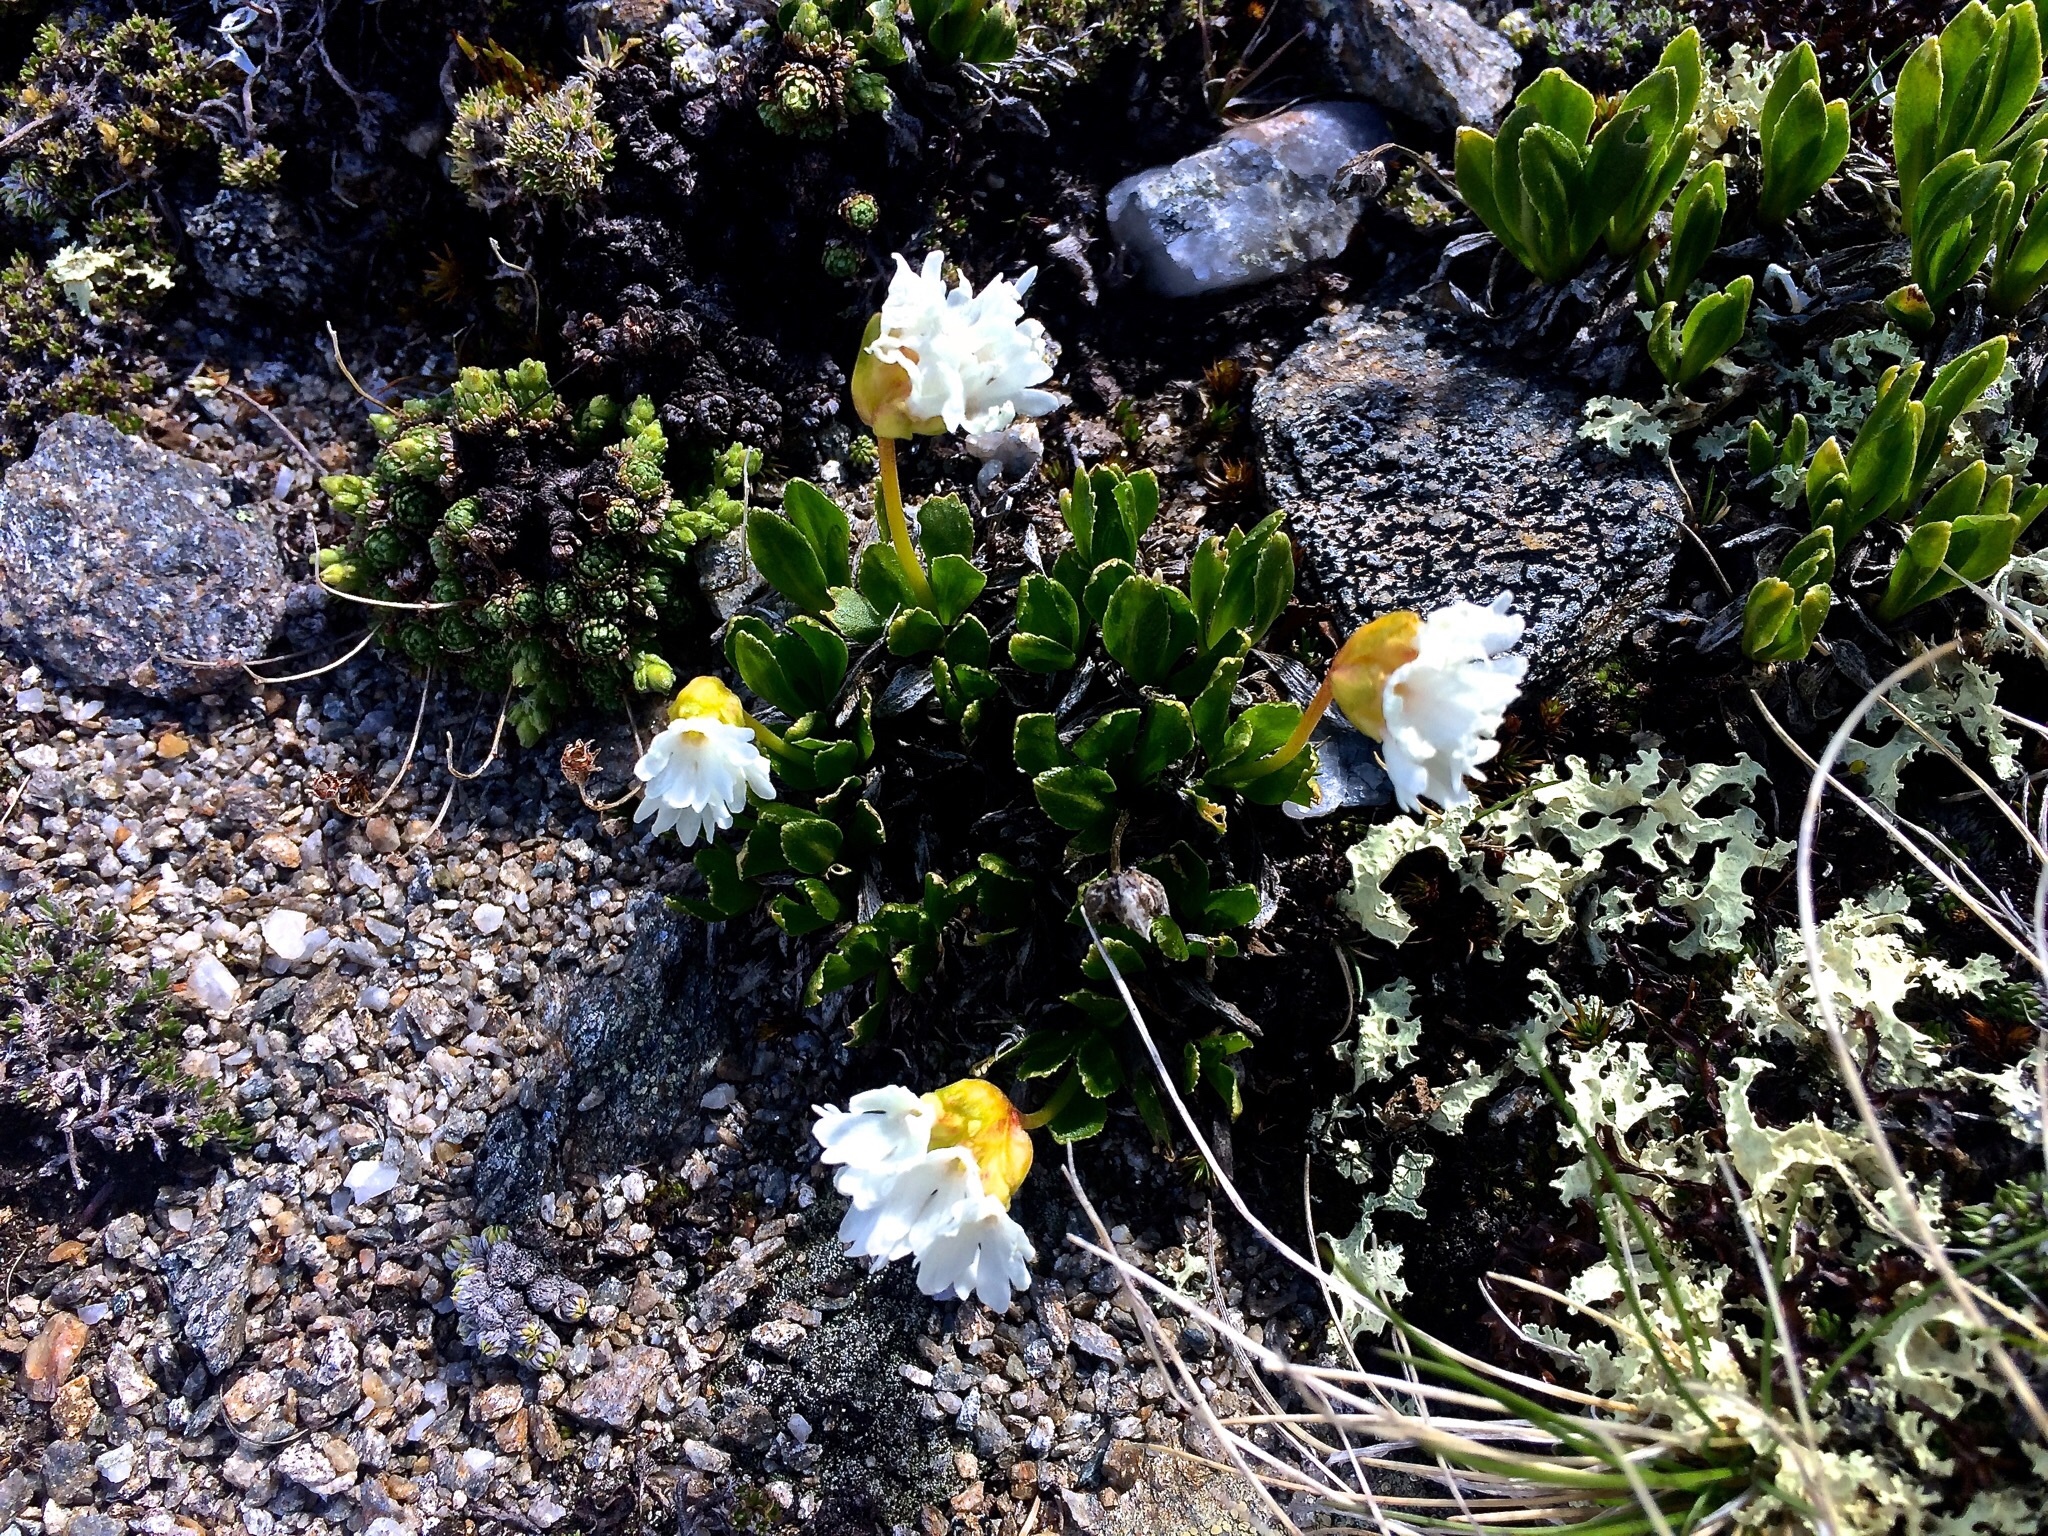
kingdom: Plantae
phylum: Tracheophyta
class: Magnoliopsida
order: Ericales
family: Primulaceae
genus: Primula
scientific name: Primula glutinosa
